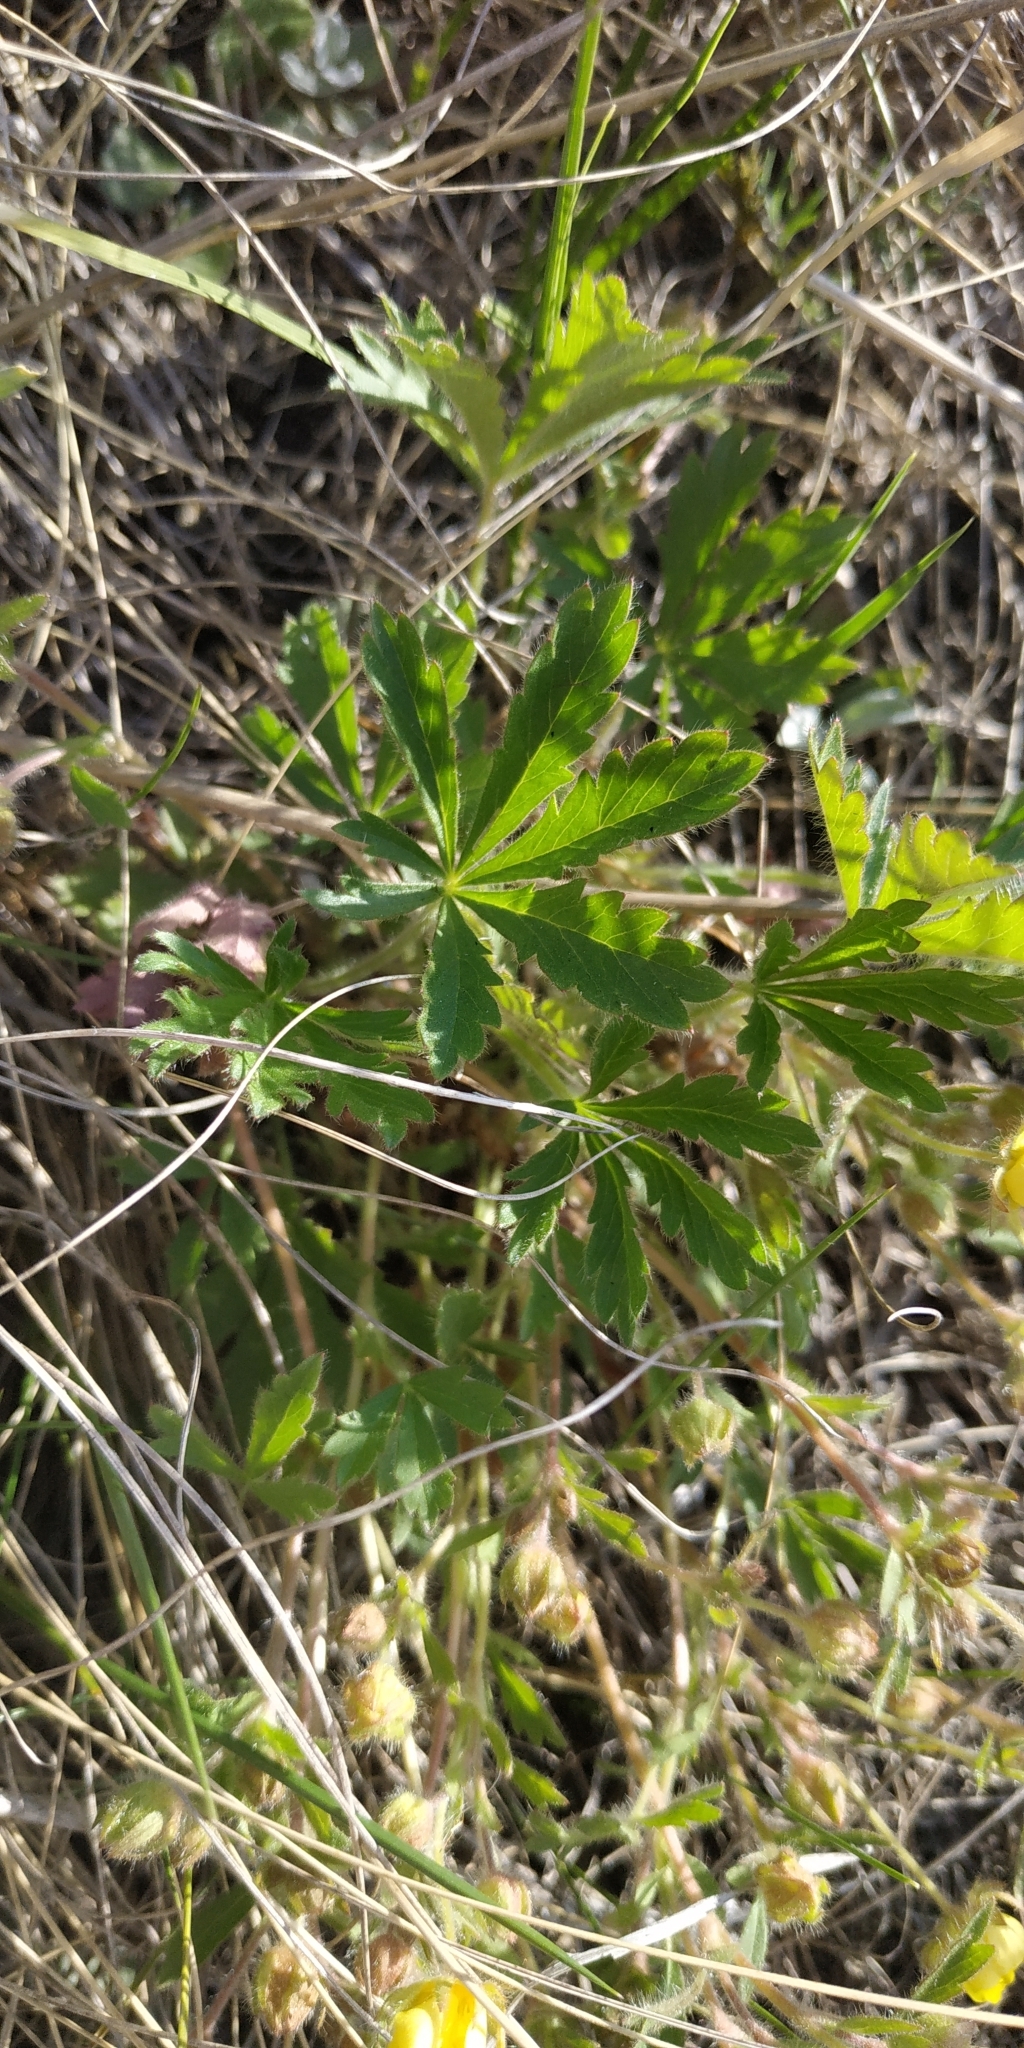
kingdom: Plantae
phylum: Tracheophyta
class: Magnoliopsida
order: Rosales
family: Rosaceae
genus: Potentilla
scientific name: Potentilla humifusa
